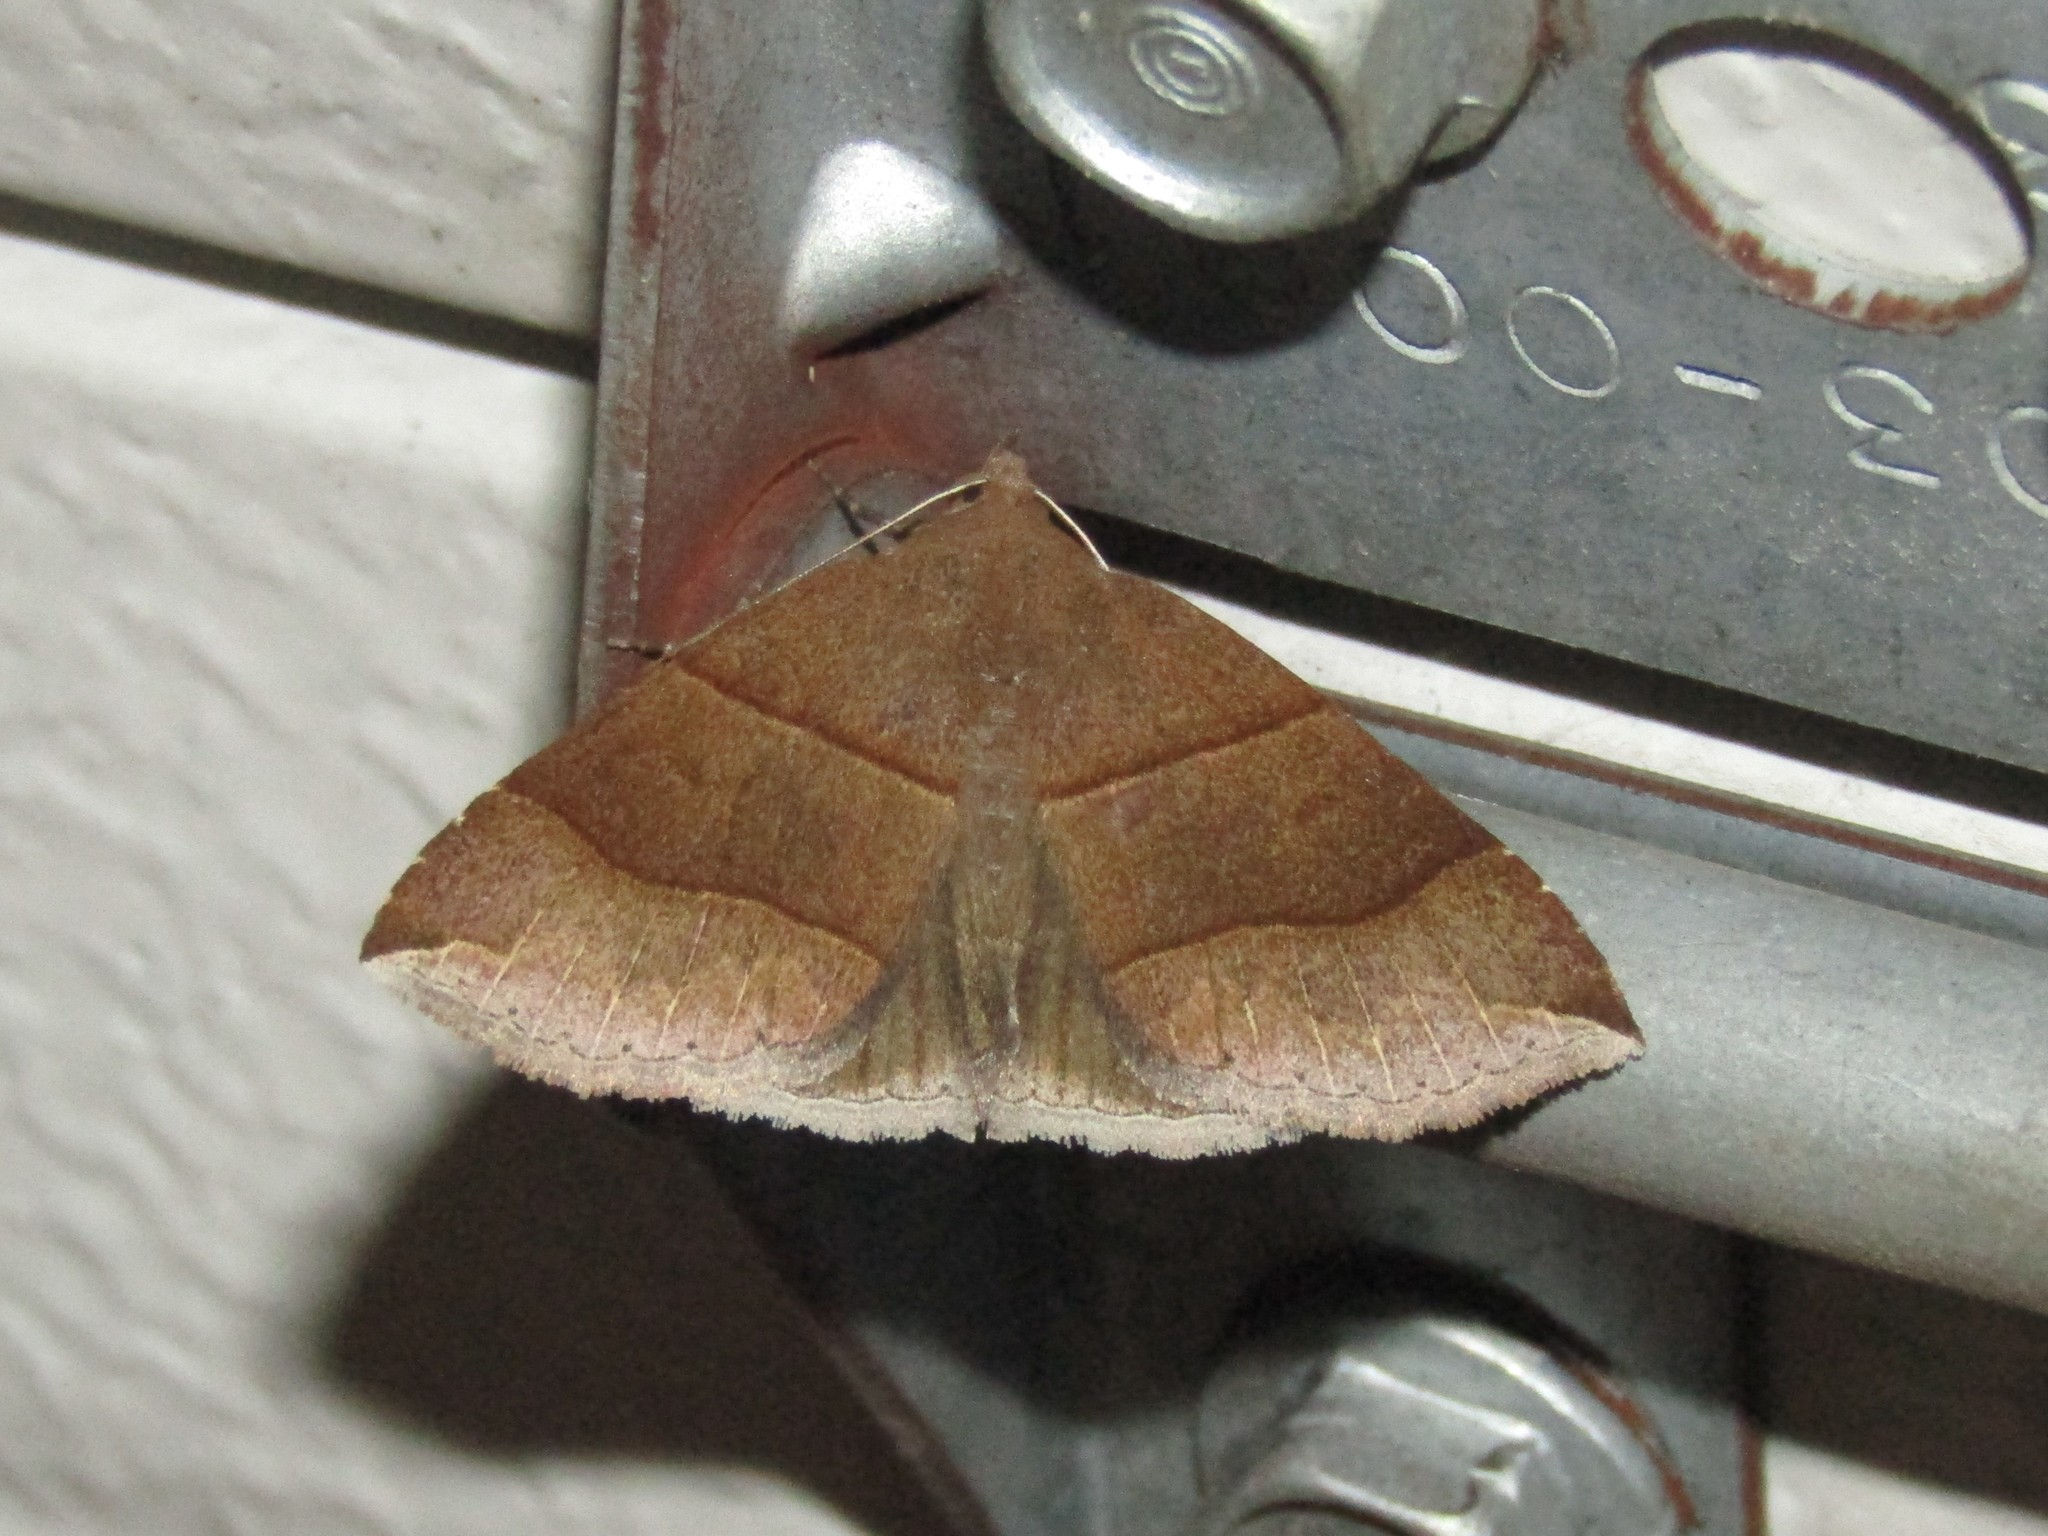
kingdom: Animalia
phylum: Arthropoda
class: Insecta
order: Lepidoptera
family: Erebidae
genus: Parallelia
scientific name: Parallelia bistriaris
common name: Maple looper moth
